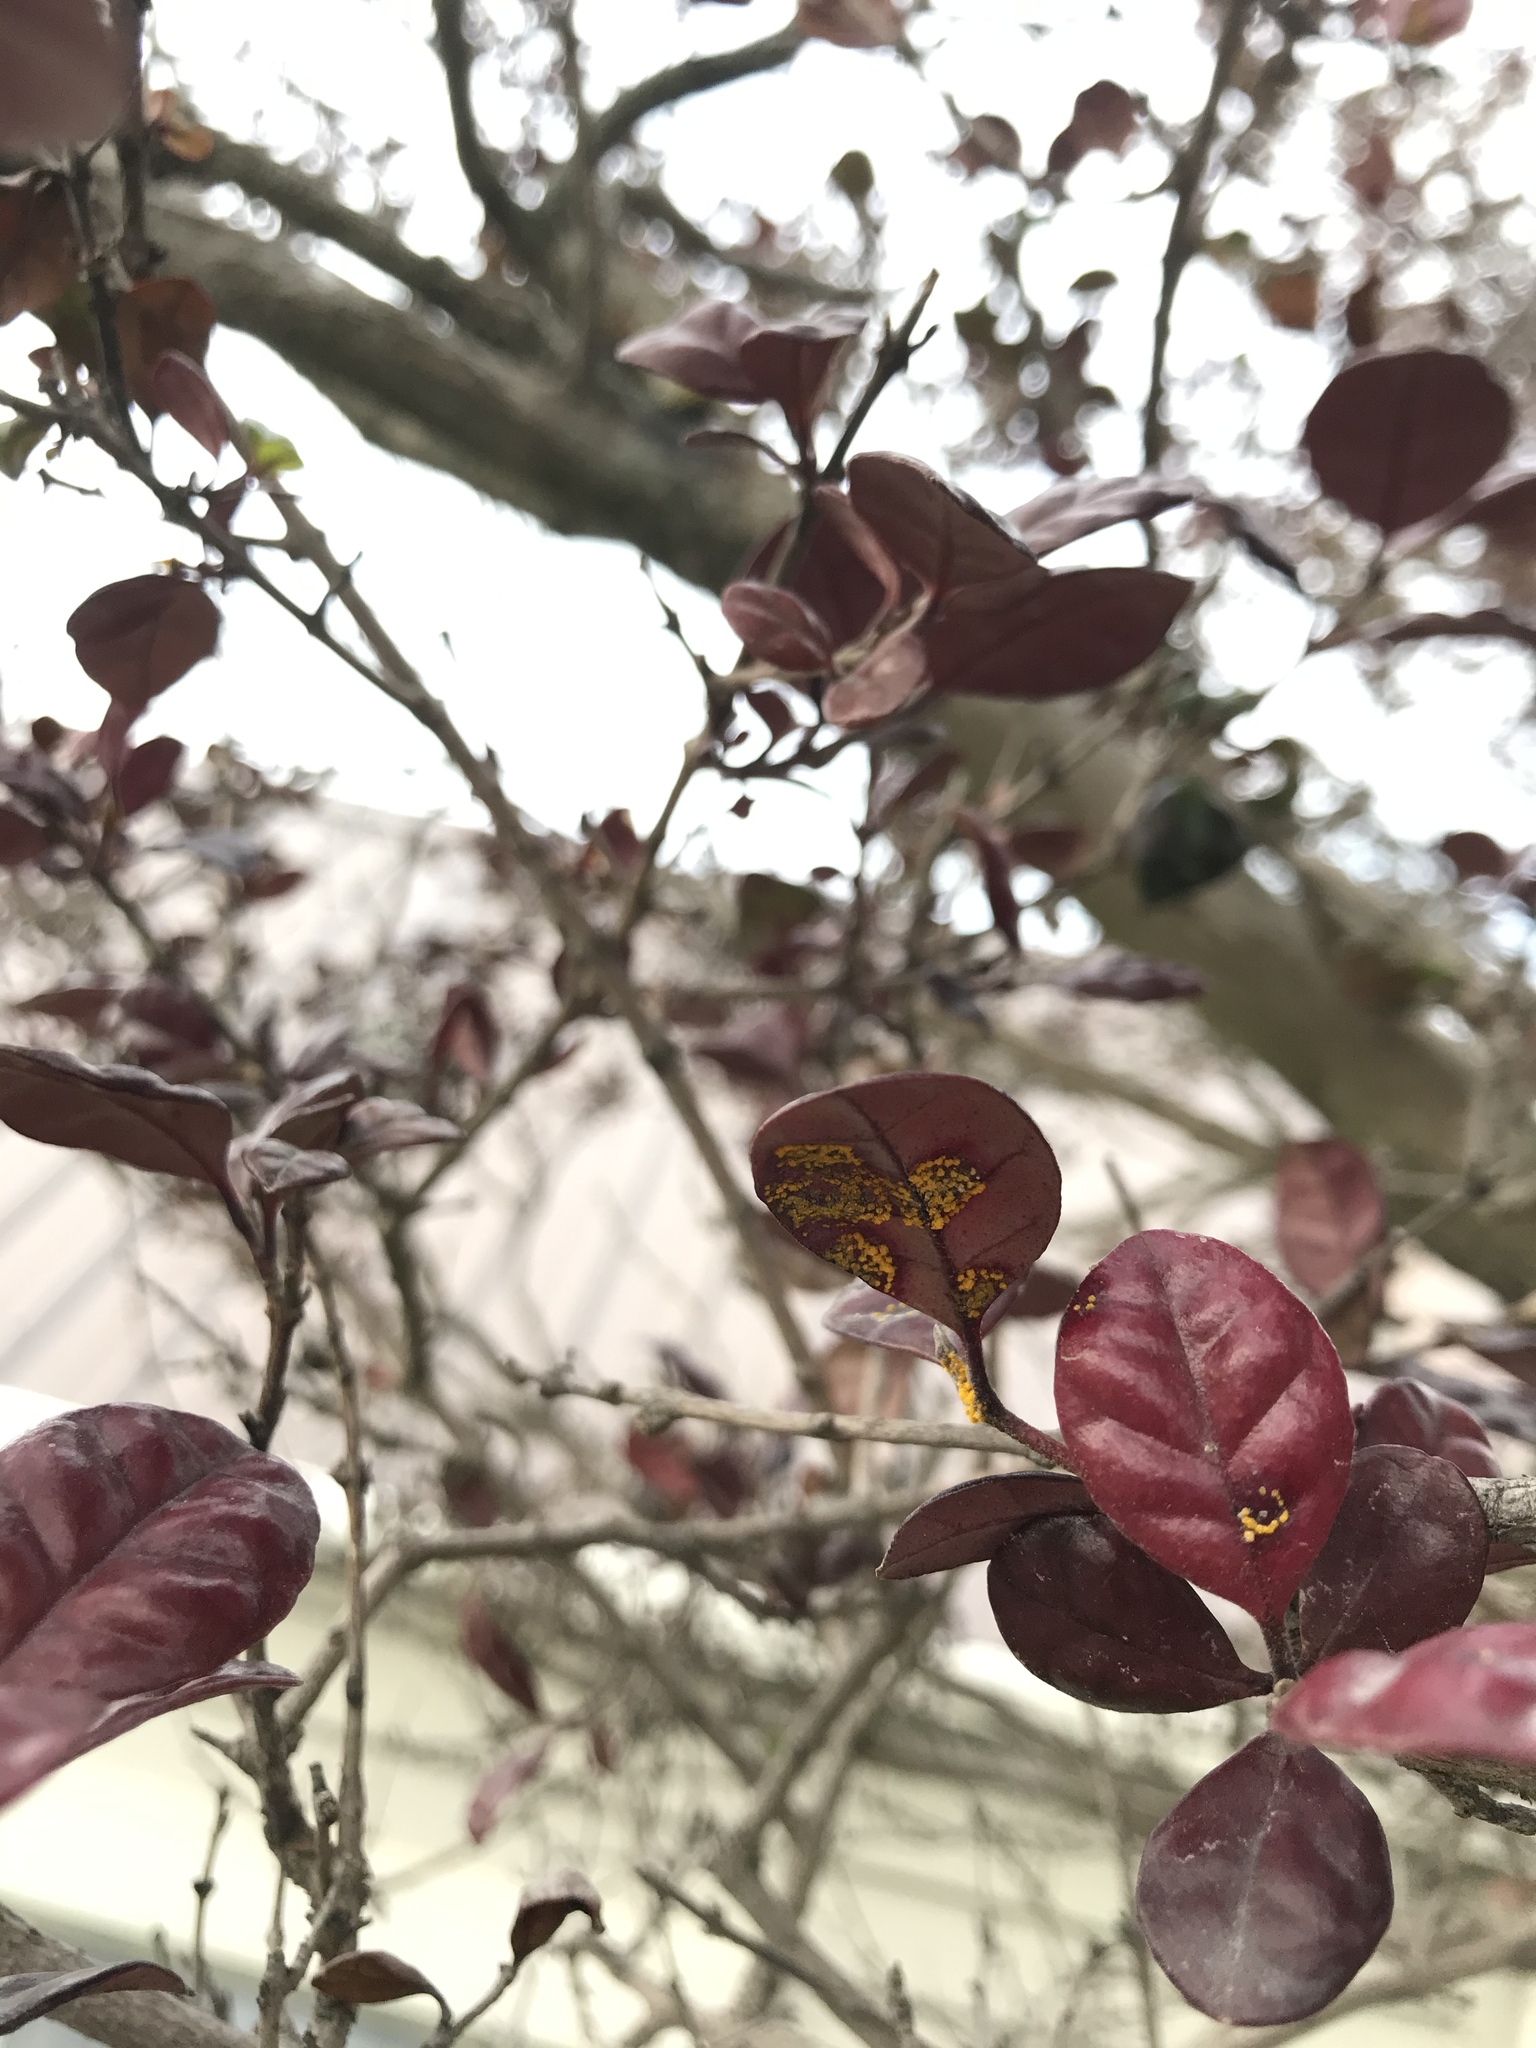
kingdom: Fungi
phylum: Basidiomycota
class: Pucciniomycetes
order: Pucciniales
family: Sphaerophragmiaceae
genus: Austropuccinia
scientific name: Austropuccinia psidii
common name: Myrtle rust
